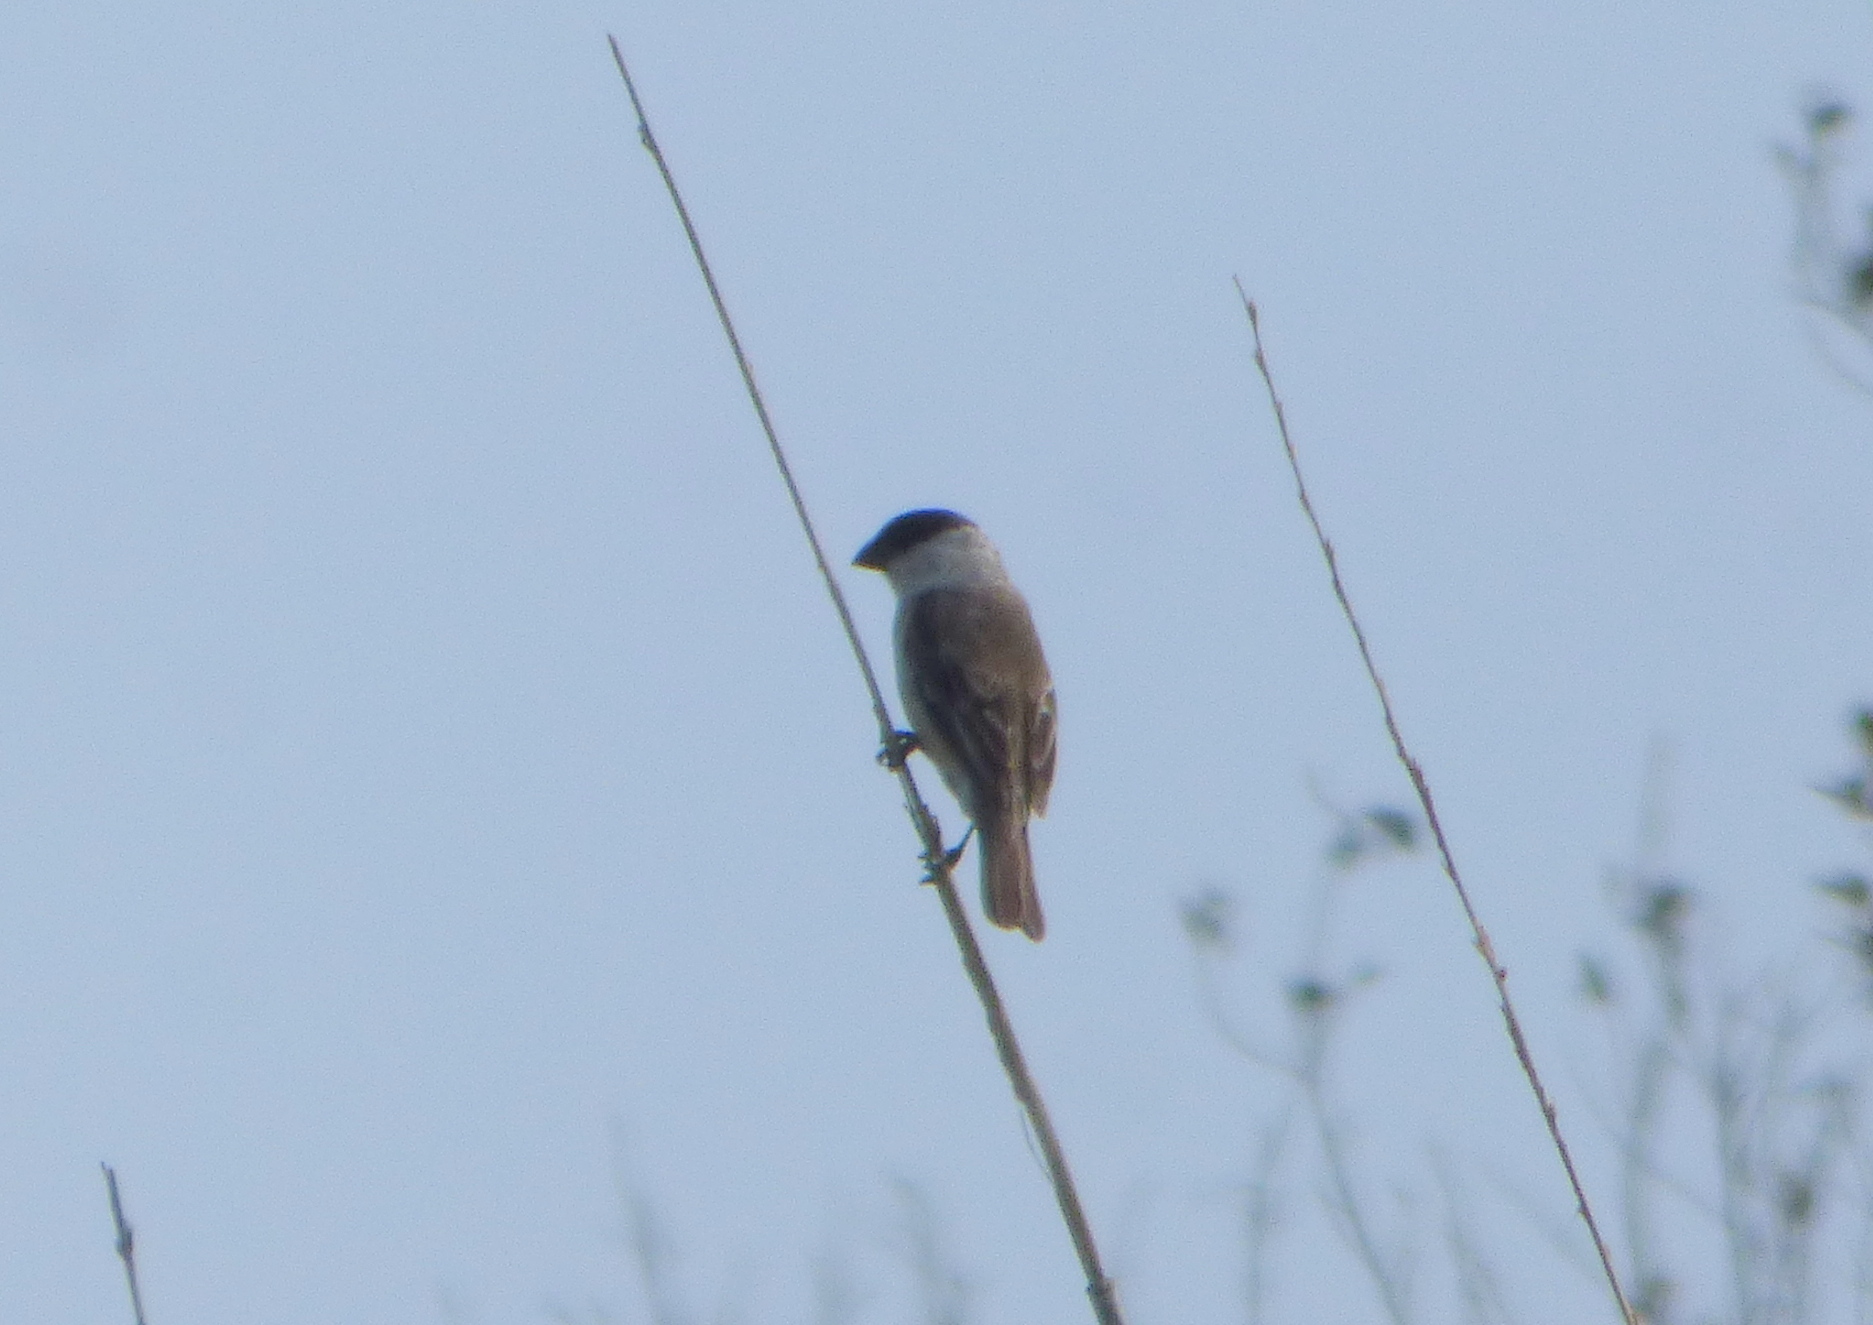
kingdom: Animalia
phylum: Chordata
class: Aves
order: Passeriformes
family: Thraupidae
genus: Sporophila
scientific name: Sporophila pileata
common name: Pearly-bellied seedeater
